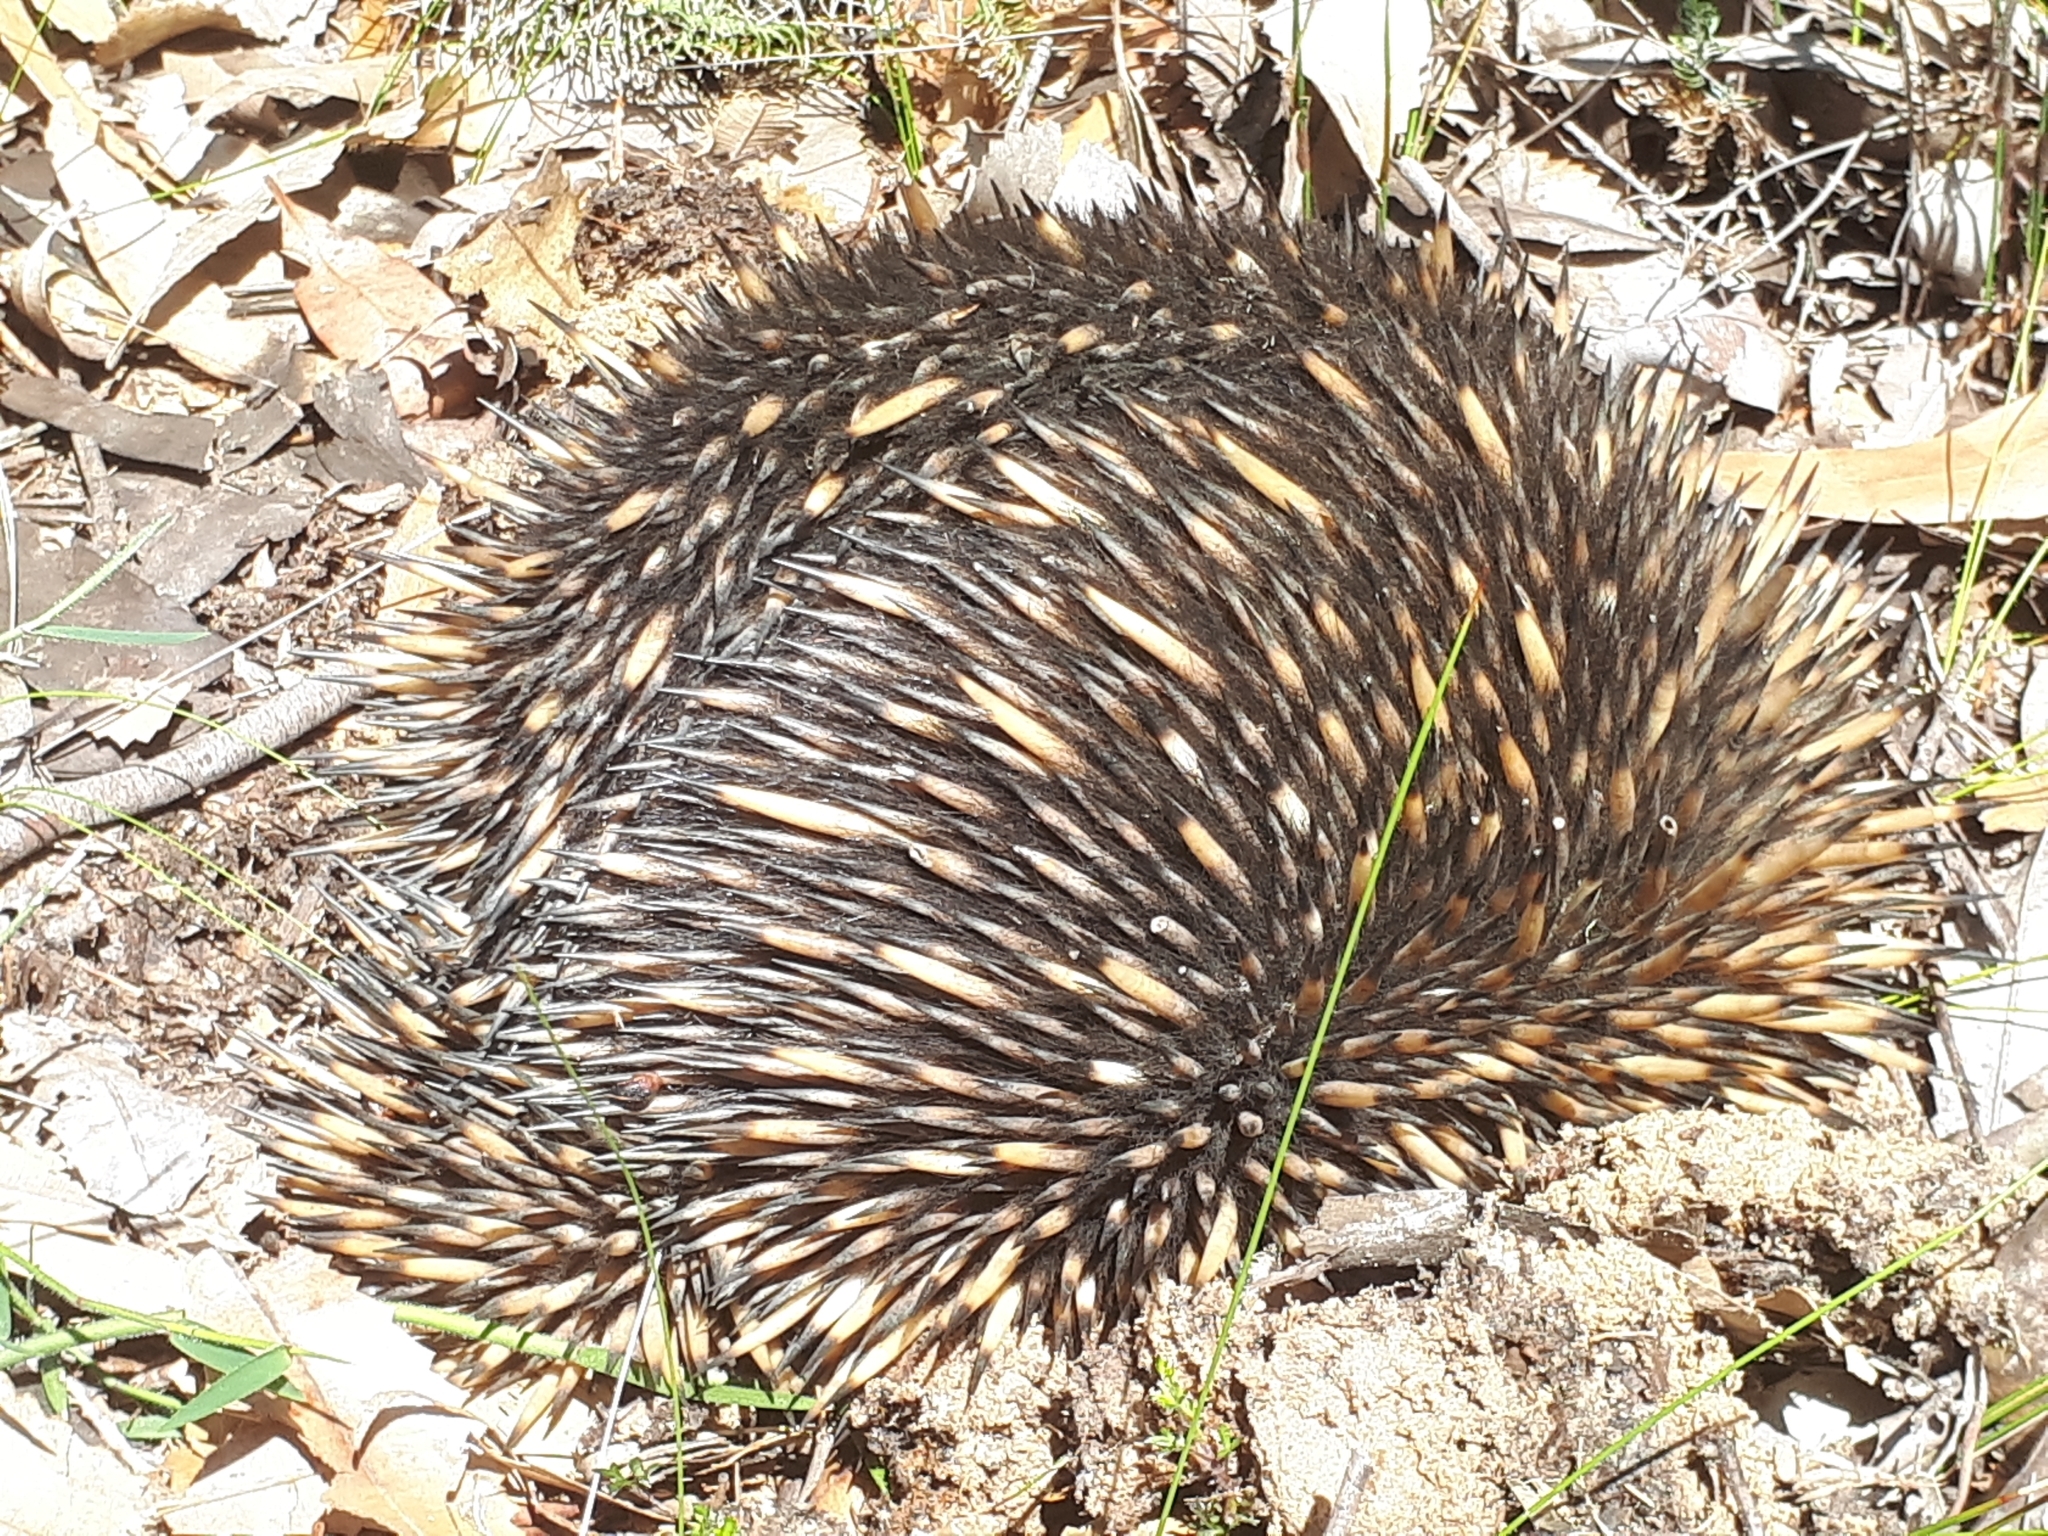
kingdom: Animalia
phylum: Chordata
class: Mammalia
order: Monotremata
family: Tachyglossidae
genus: Tachyglossus
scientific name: Tachyglossus aculeatus
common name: Short-beaked echidna
